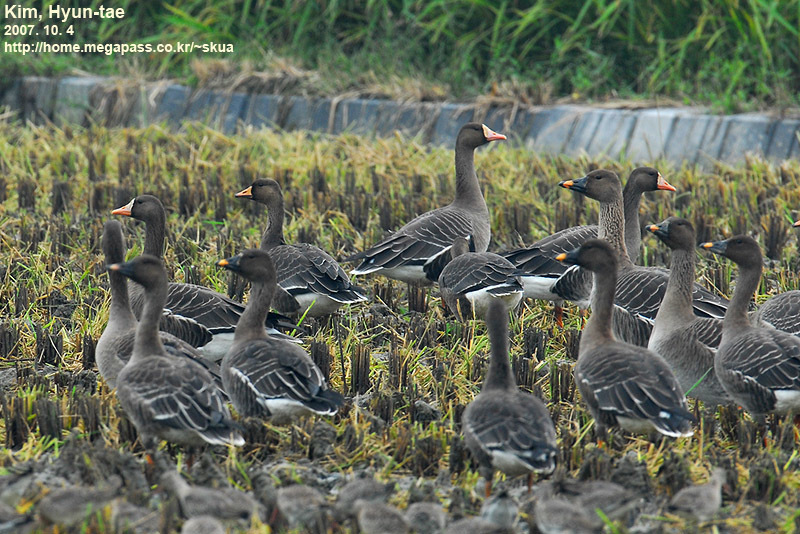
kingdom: Animalia
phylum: Chordata
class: Aves
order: Anseriformes
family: Anatidae
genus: Anser
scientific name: Anser albifrons
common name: Greater white-fronted goose
